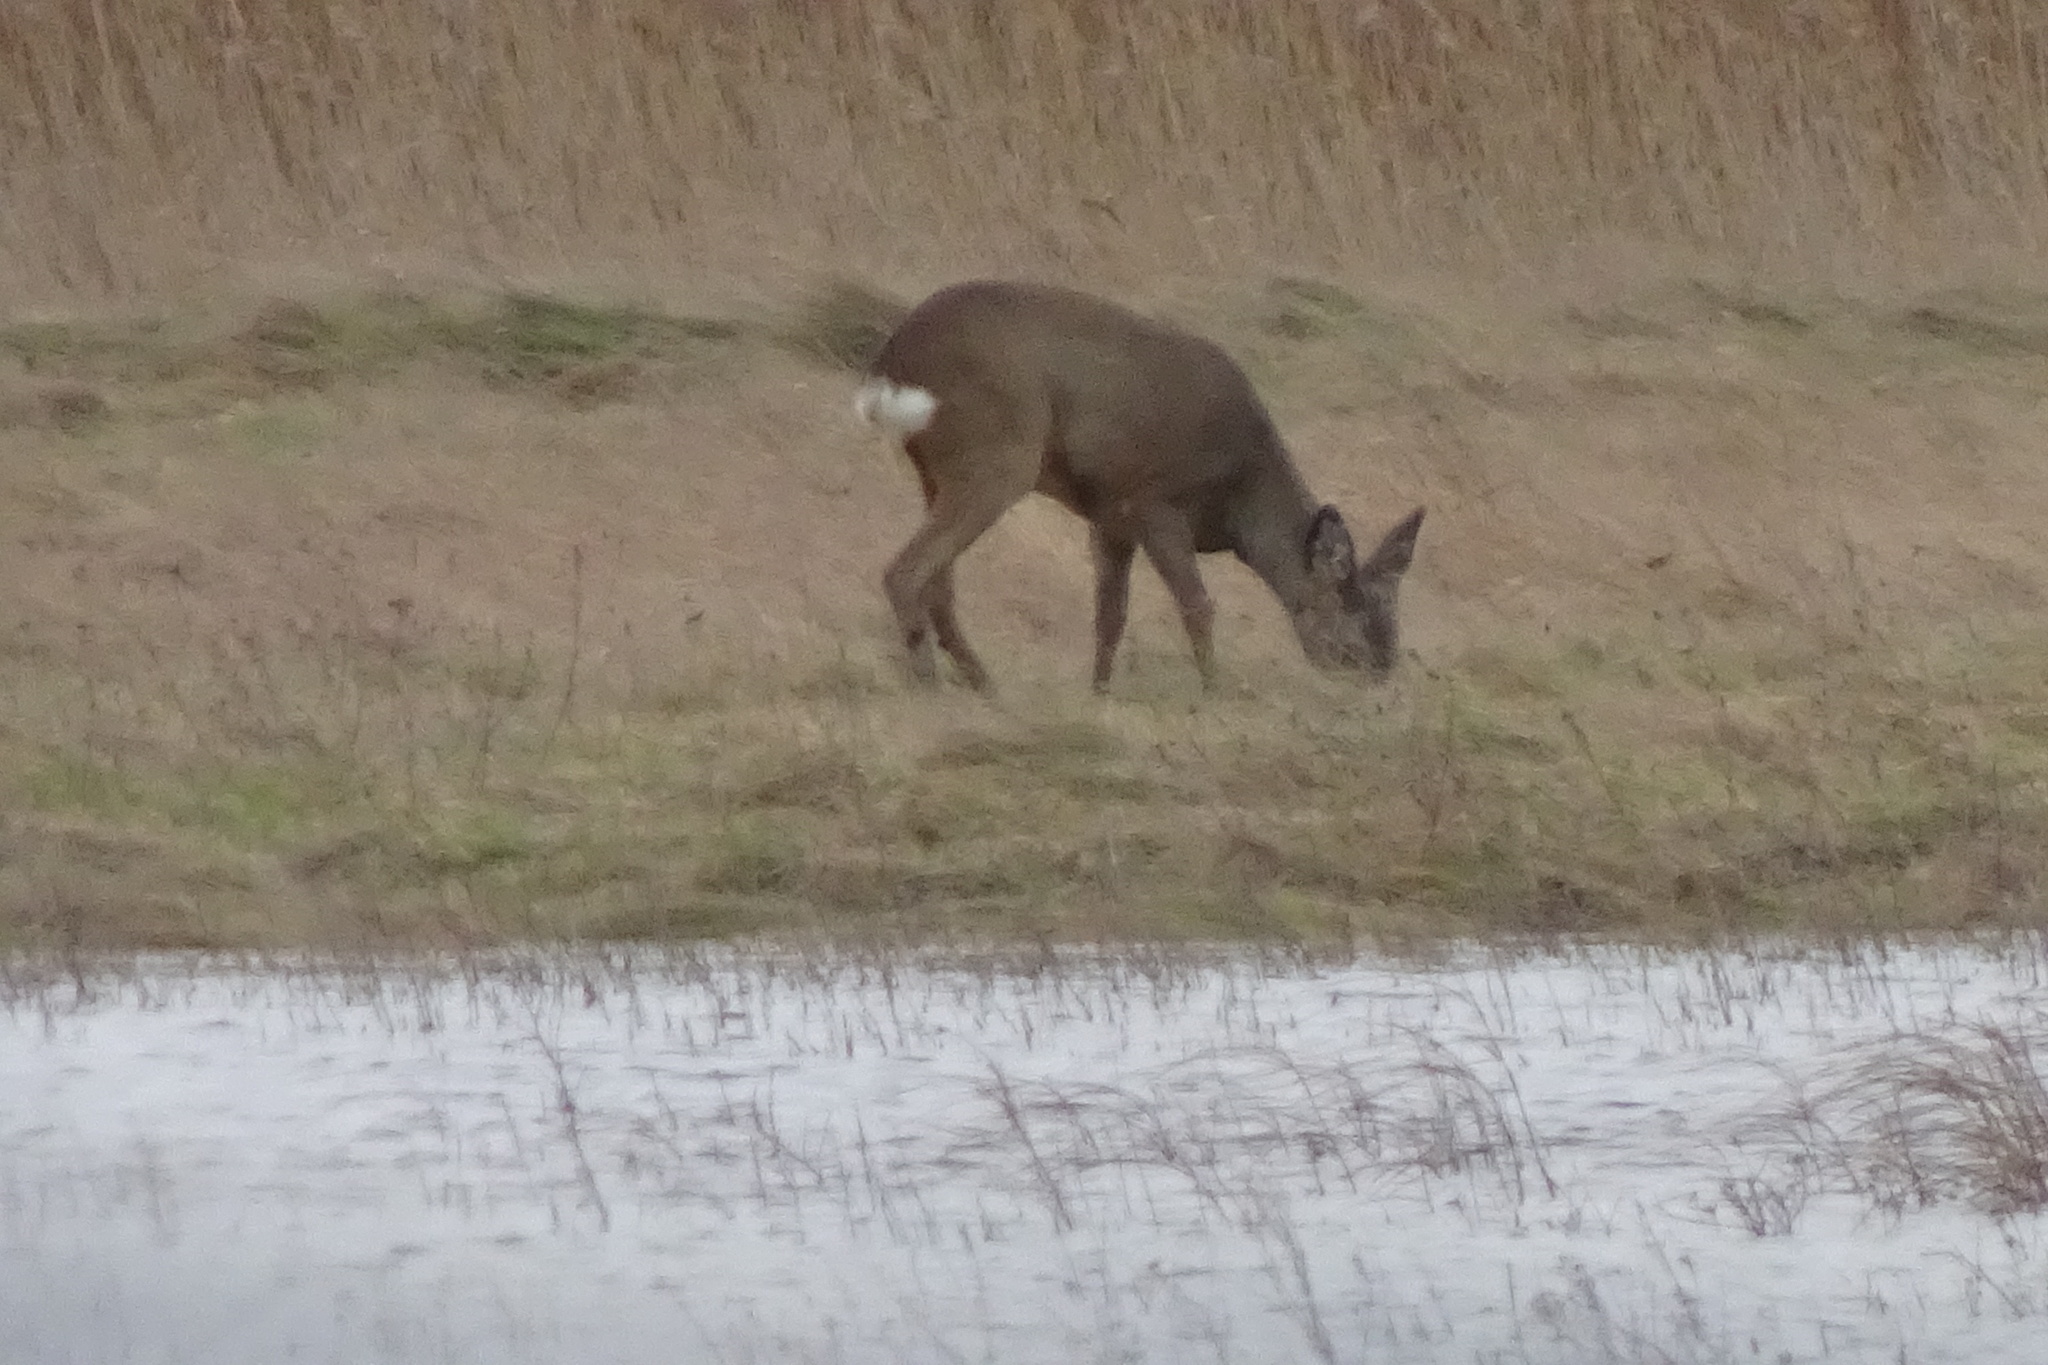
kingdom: Animalia
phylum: Chordata
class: Mammalia
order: Artiodactyla
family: Cervidae
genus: Capreolus
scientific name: Capreolus capreolus
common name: Western roe deer
